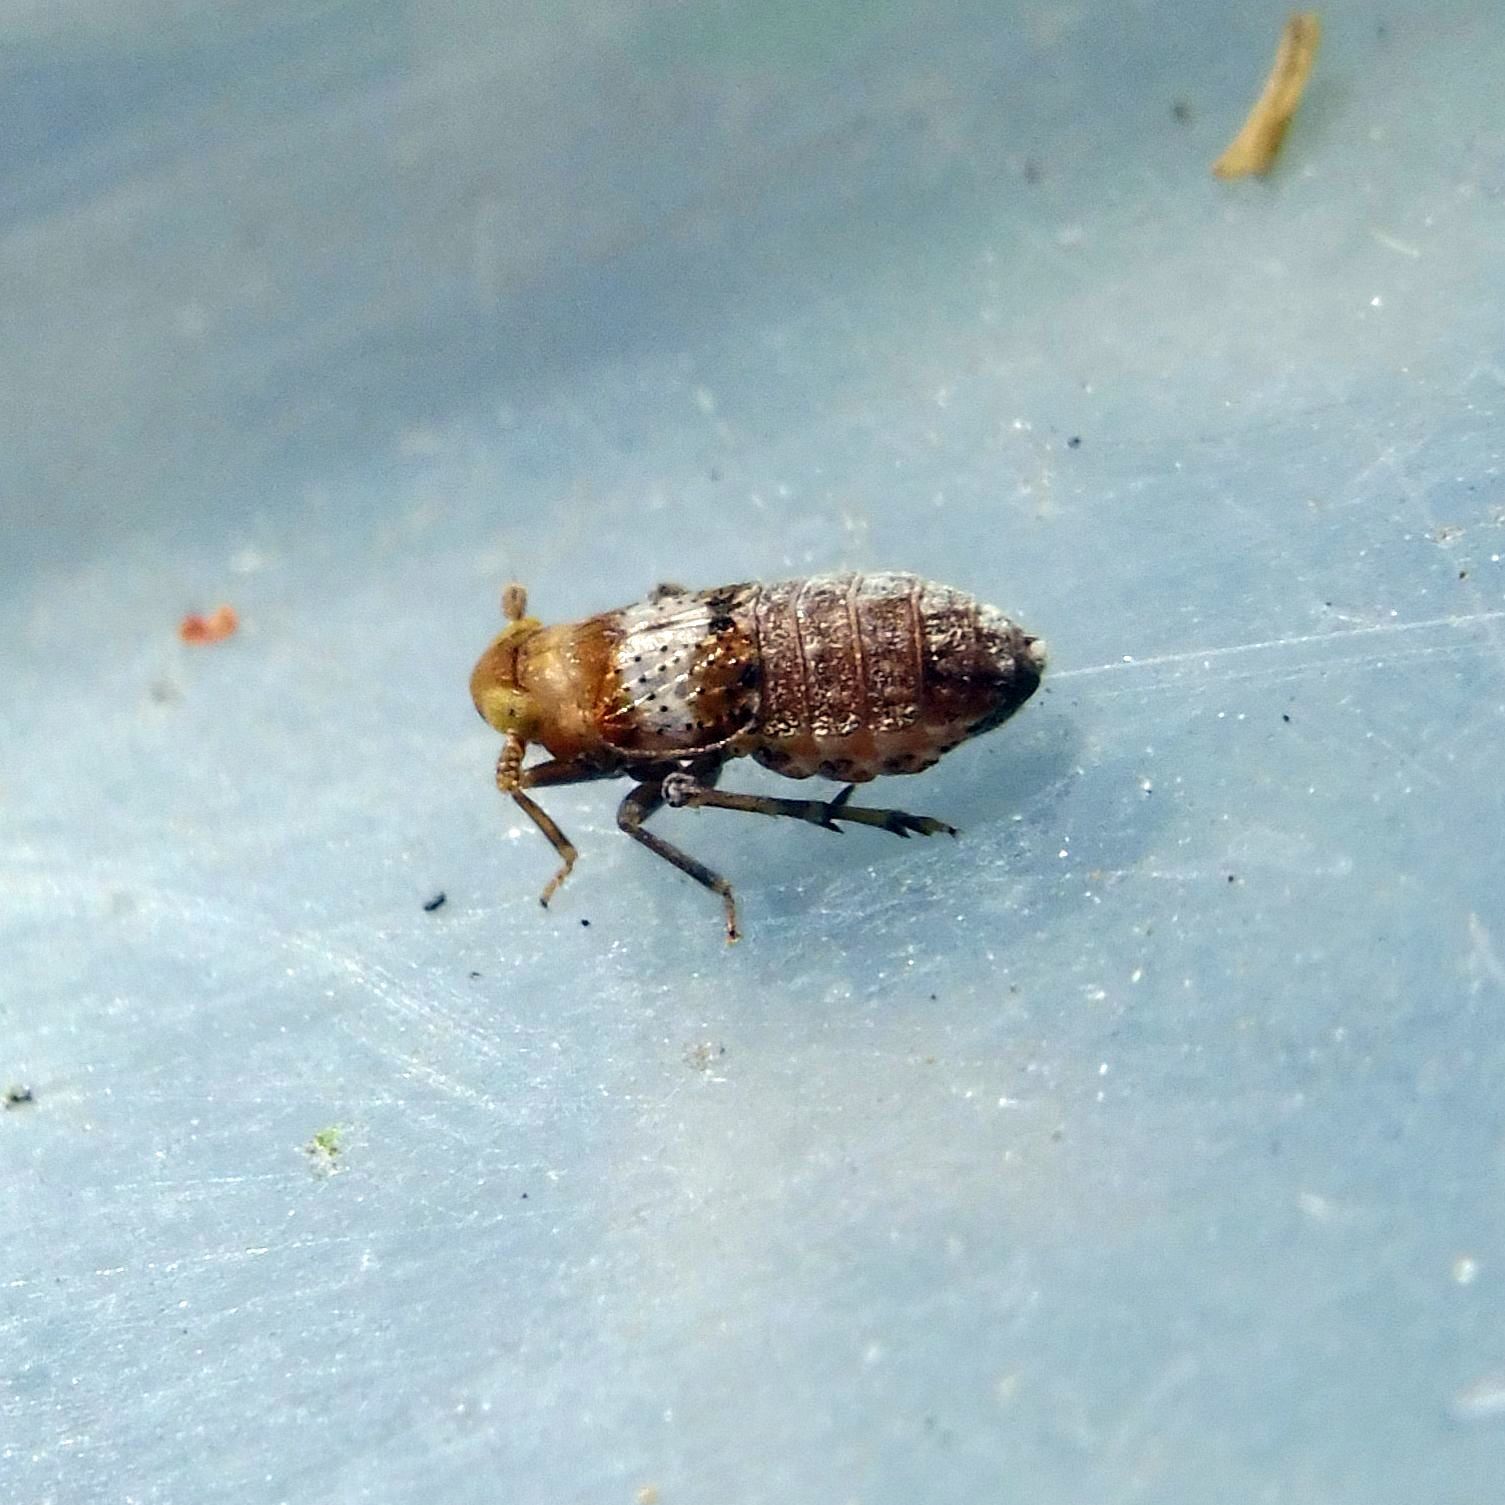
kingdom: Animalia
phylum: Arthropoda
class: Insecta
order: Hemiptera
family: Delphacidae
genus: Conomelus
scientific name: Conomelus anceps
